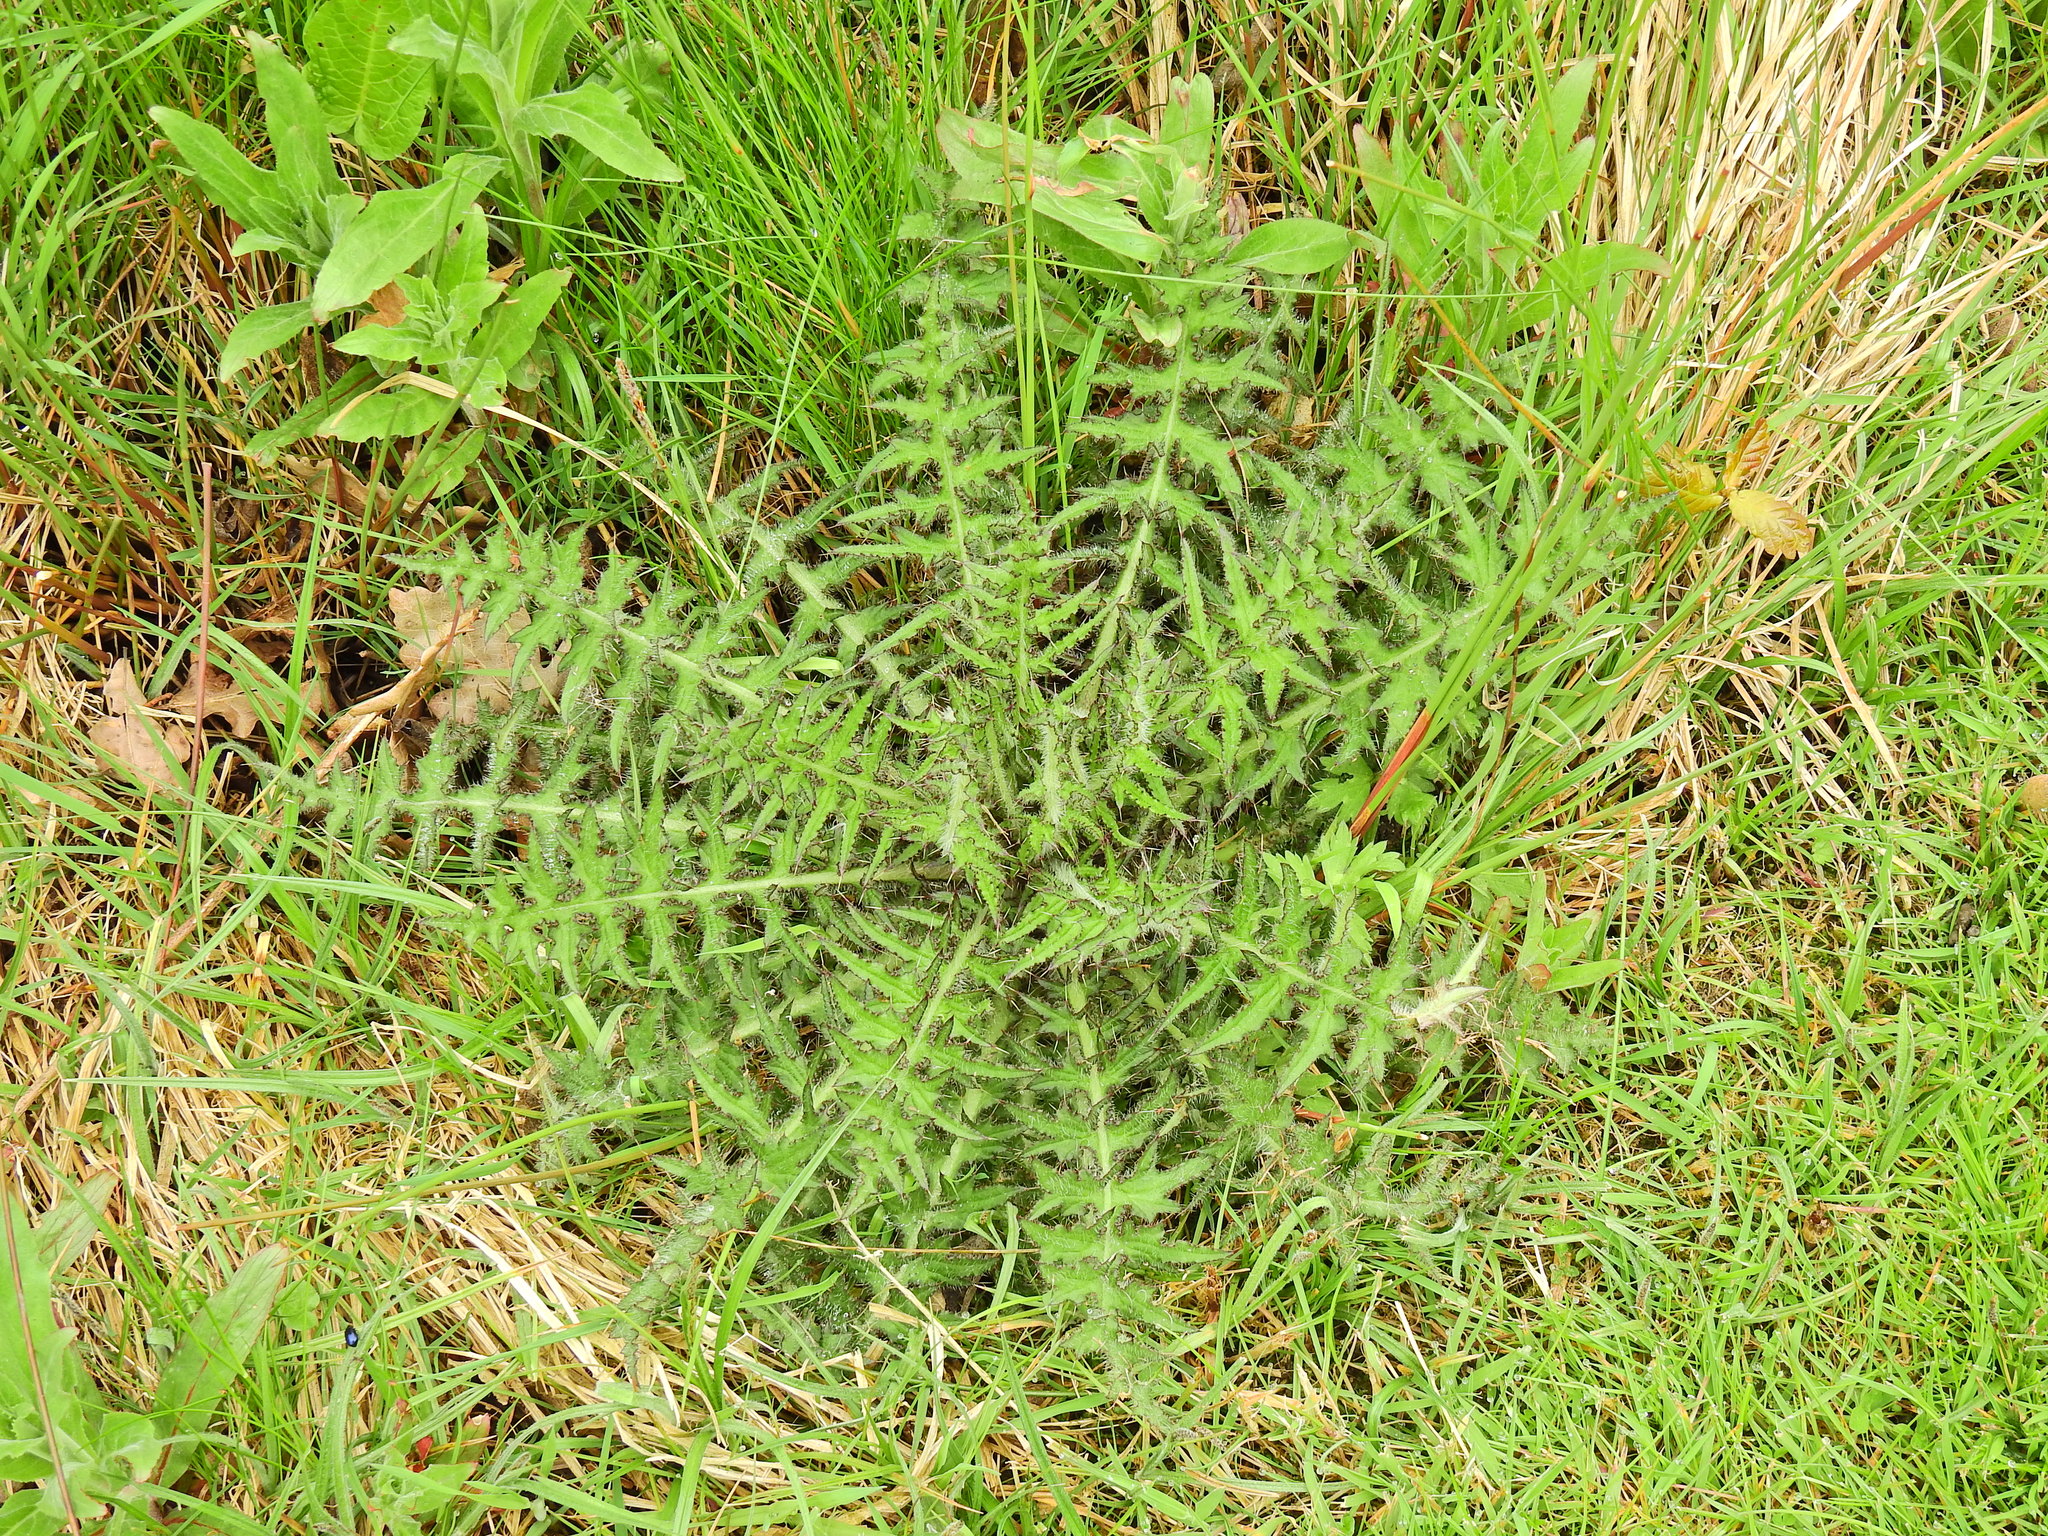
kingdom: Plantae
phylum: Tracheophyta
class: Magnoliopsida
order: Asterales
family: Asteraceae
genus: Cirsium
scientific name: Cirsium palustre
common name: Marsh thistle
